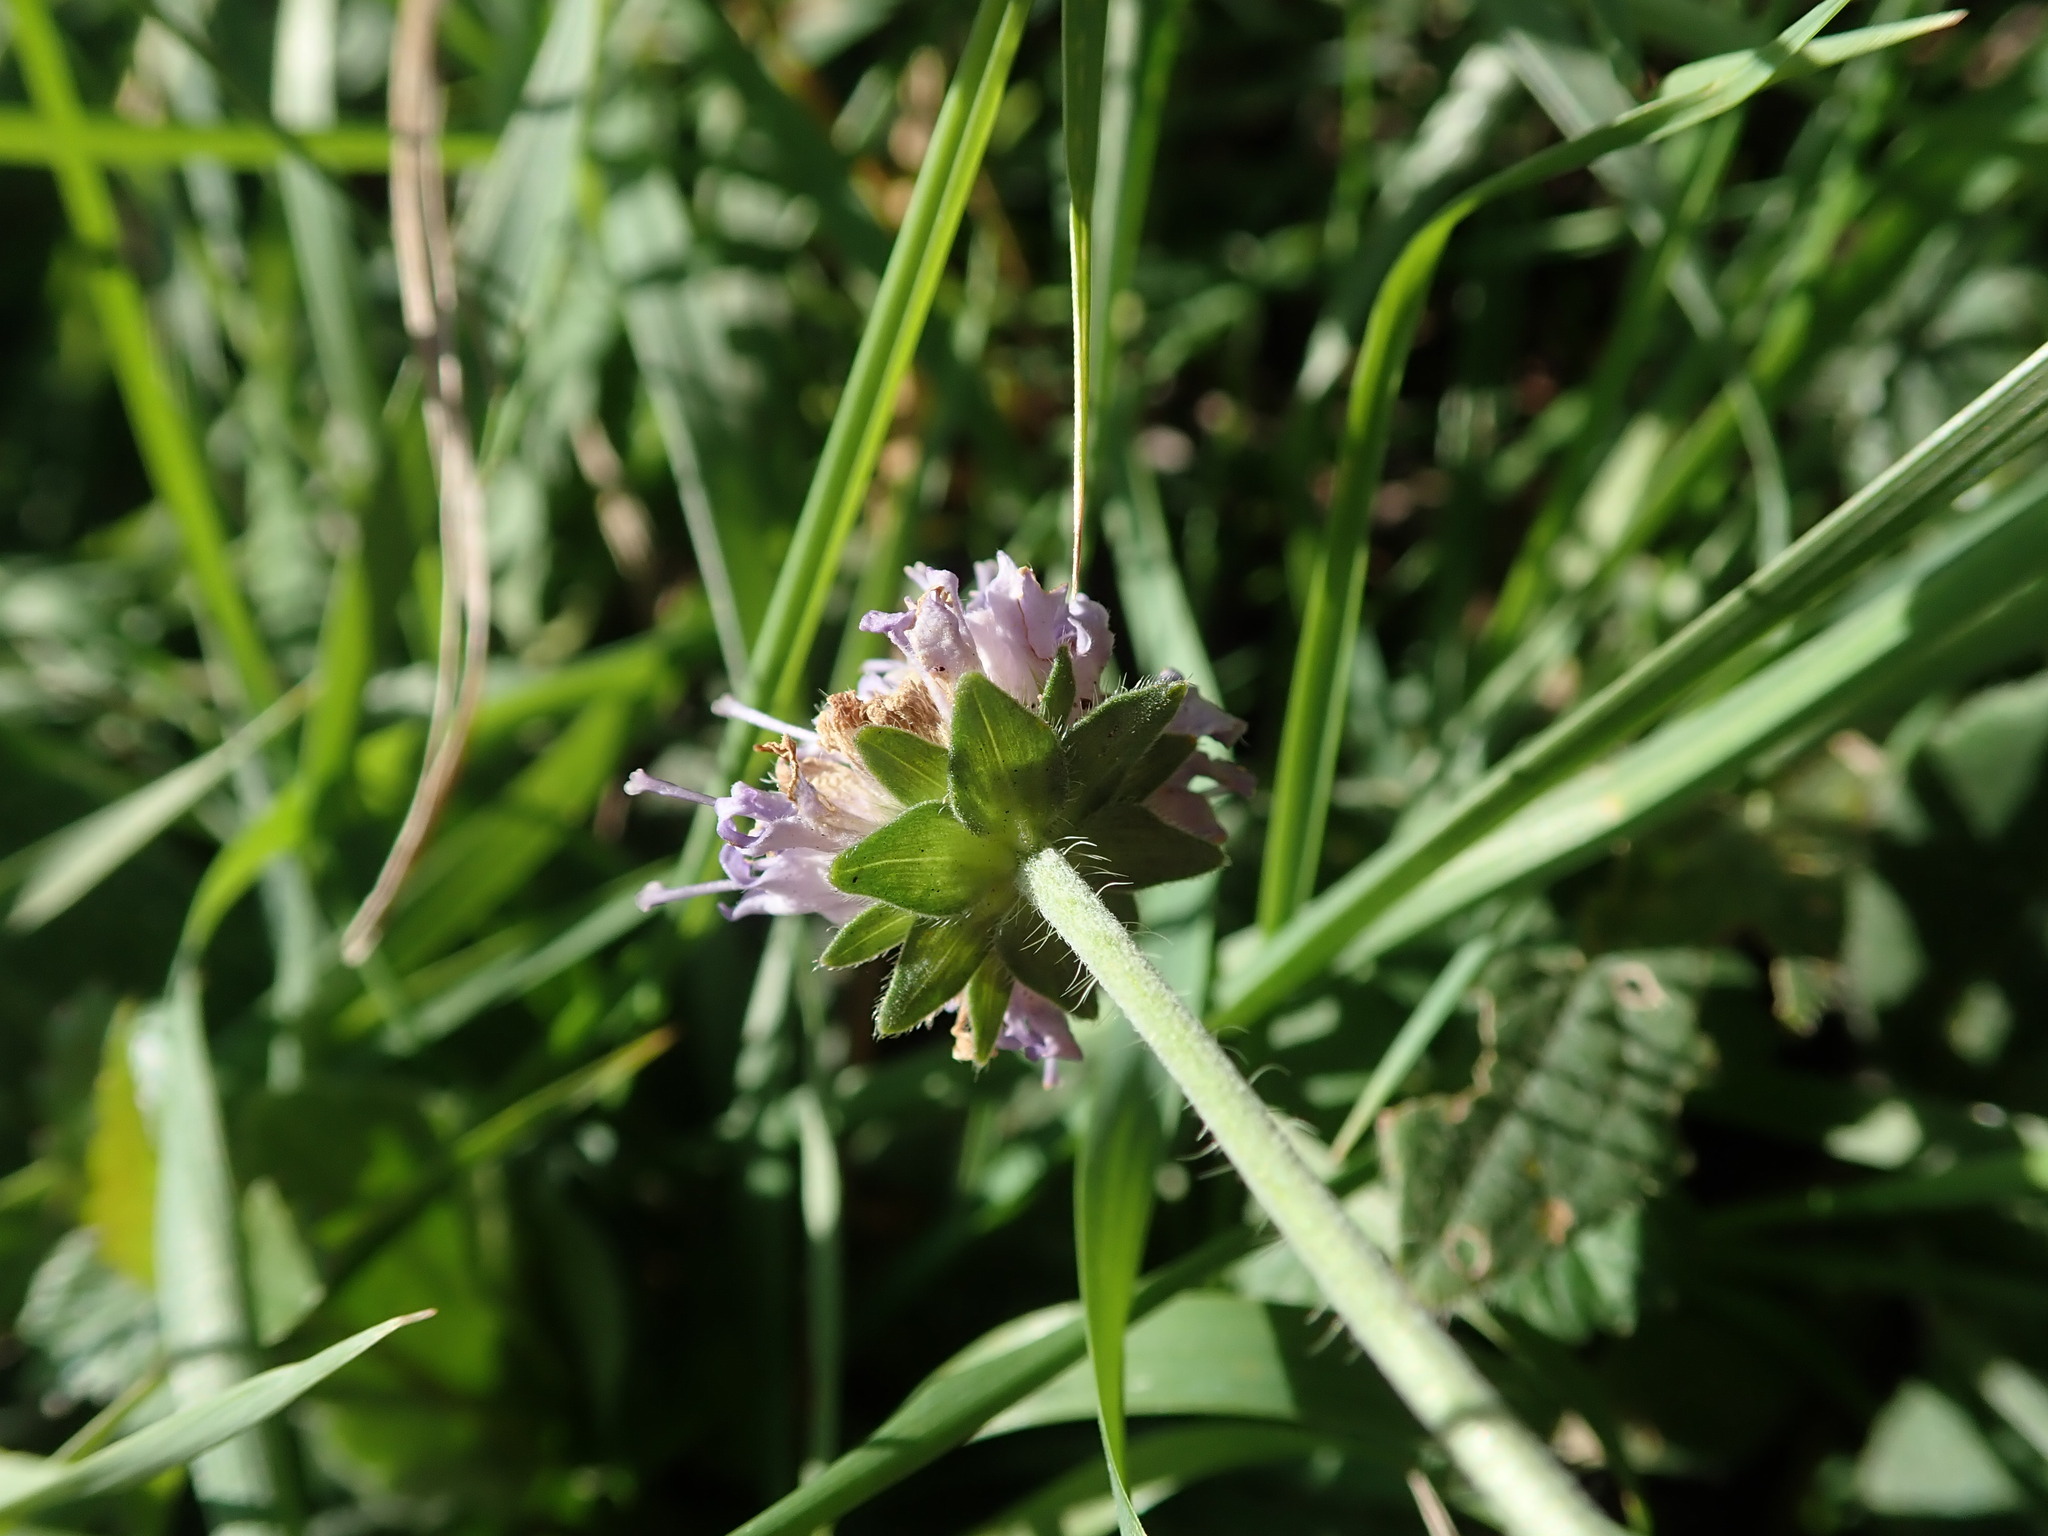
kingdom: Plantae
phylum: Tracheophyta
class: Magnoliopsida
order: Dipsacales
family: Caprifoliaceae
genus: Knautia
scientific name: Knautia arvensis
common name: Field scabiosa
